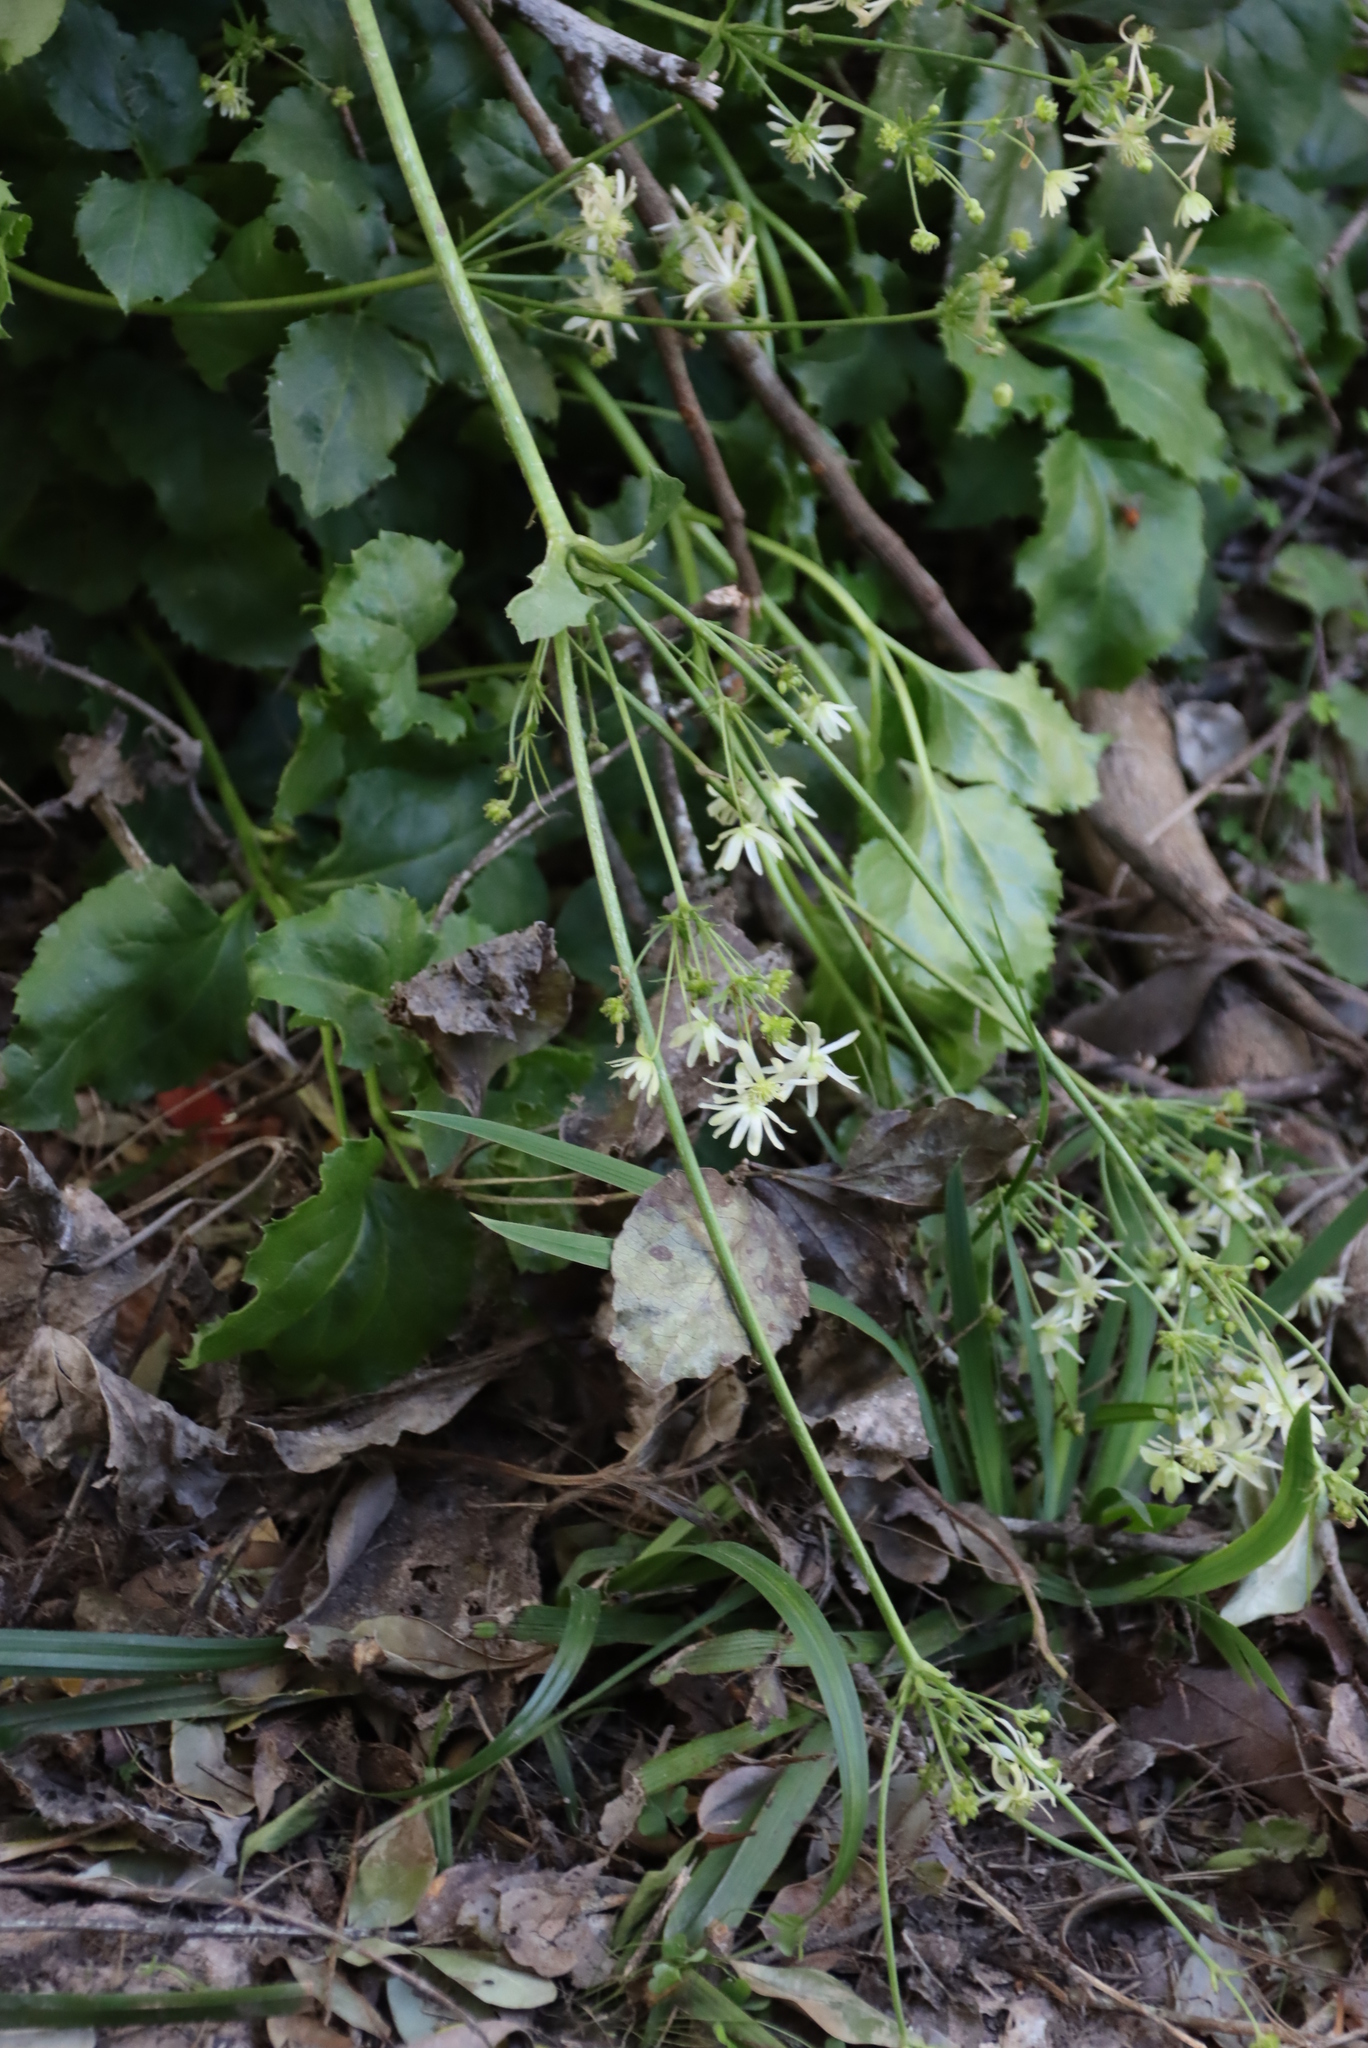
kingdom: Plantae
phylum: Tracheophyta
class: Magnoliopsida
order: Ranunculales
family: Ranunculaceae
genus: Knowltonia
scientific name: Knowltonia vesicatoria
